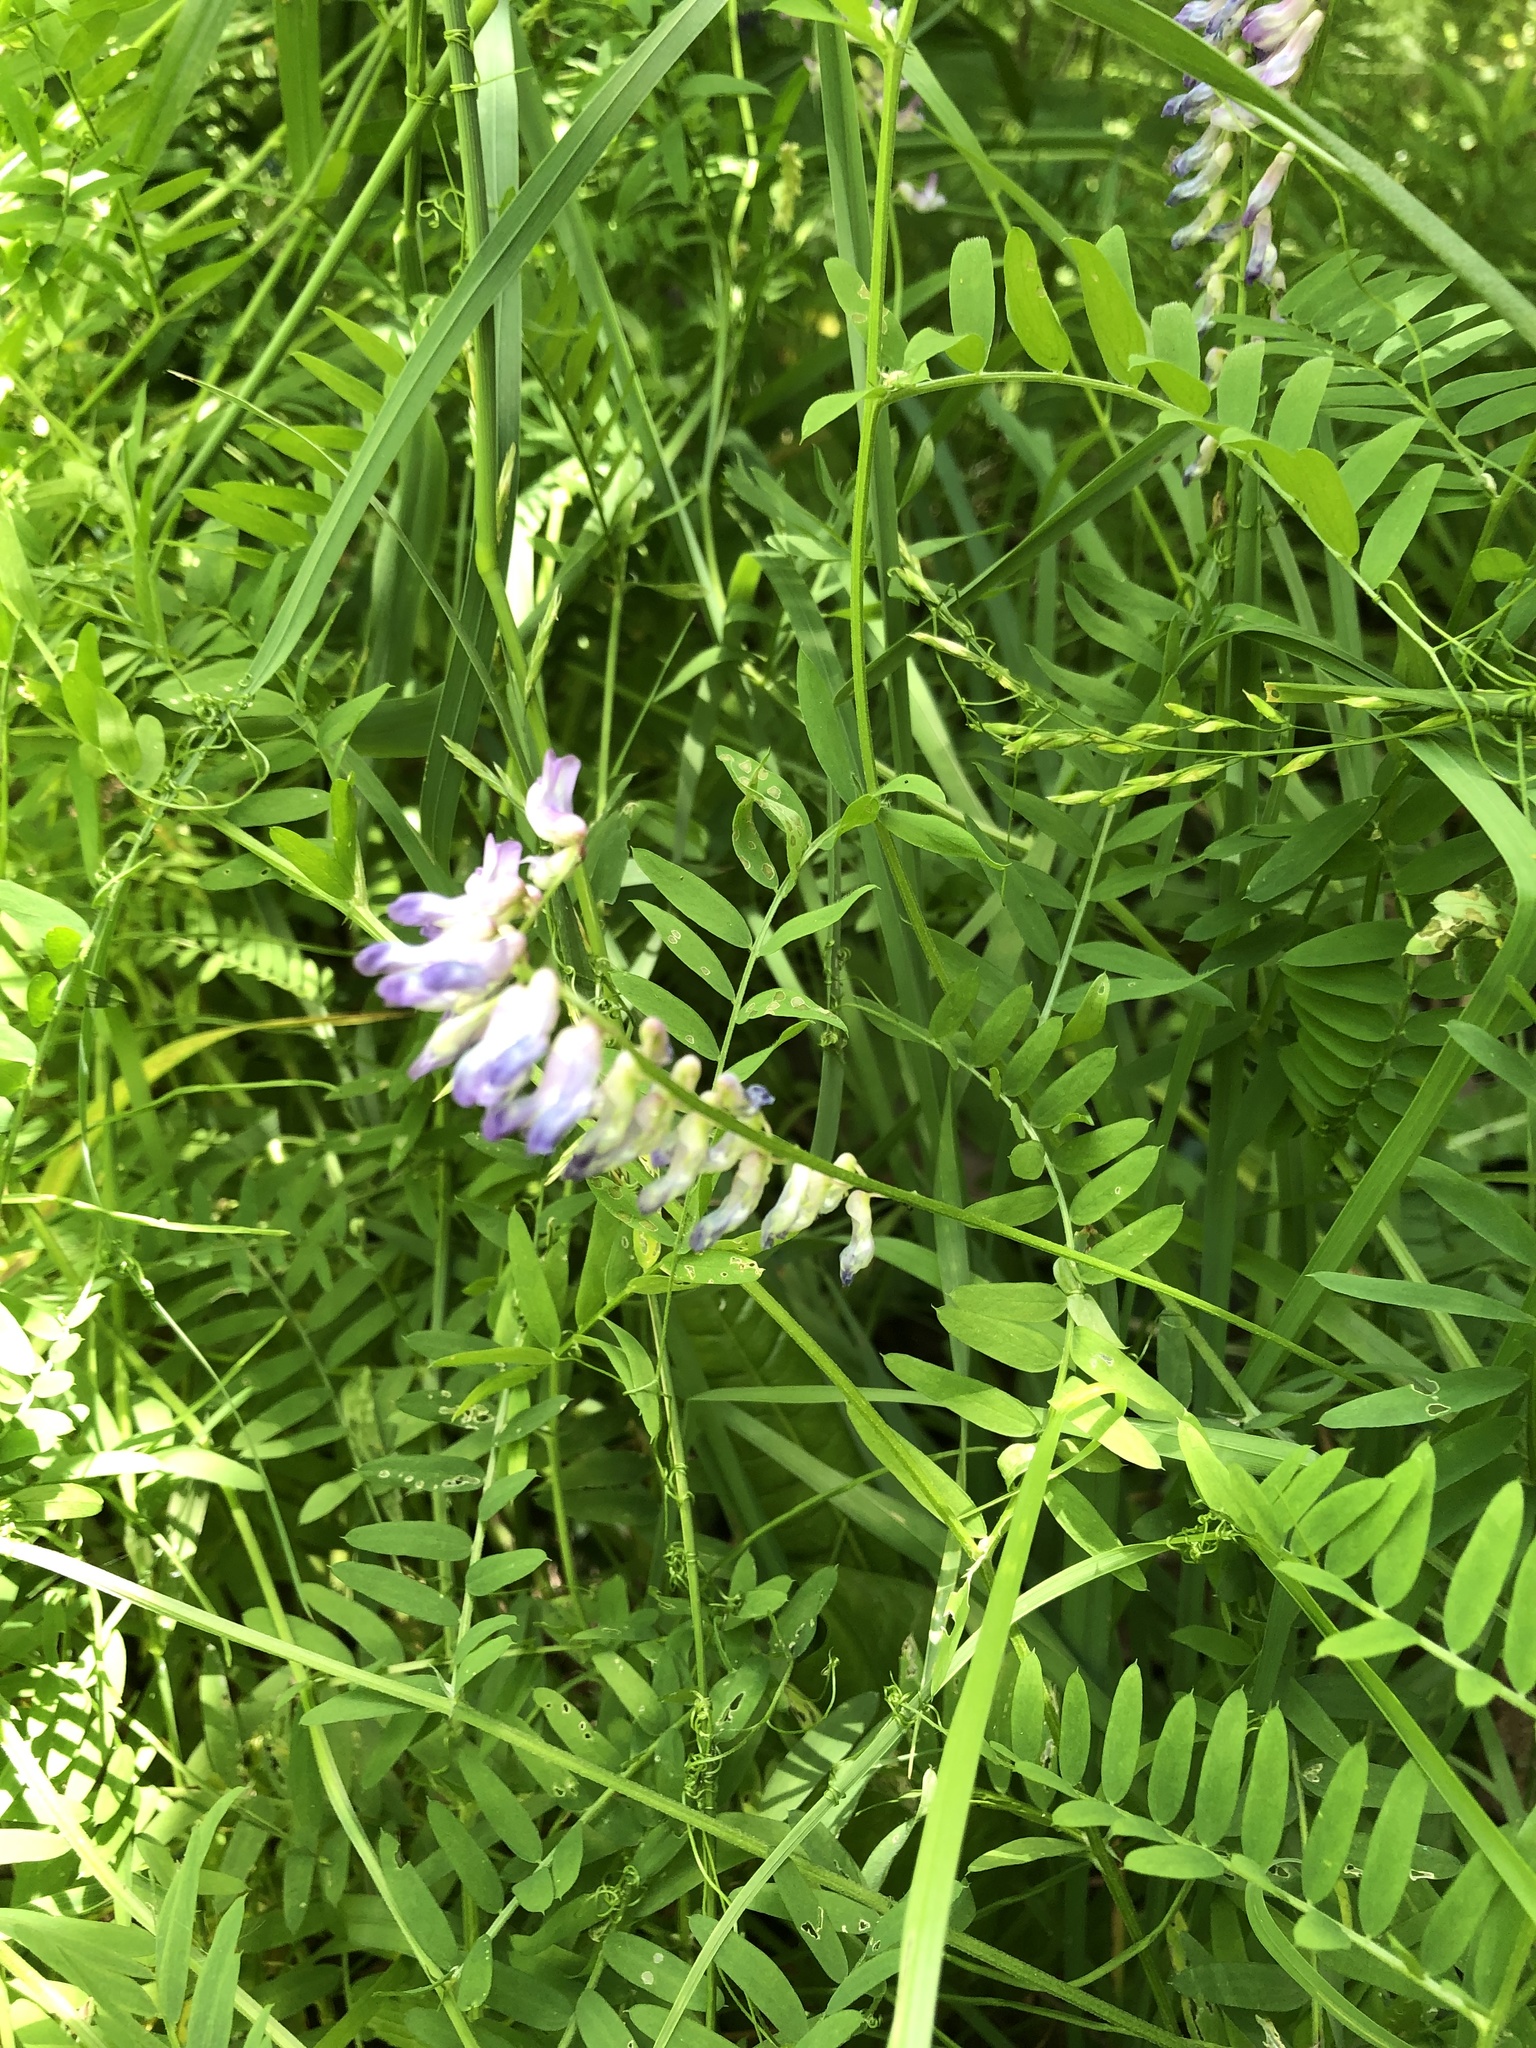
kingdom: Plantae
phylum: Tracheophyta
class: Magnoliopsida
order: Fabales
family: Fabaceae
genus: Vicia
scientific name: Vicia cracca
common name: Bird vetch
